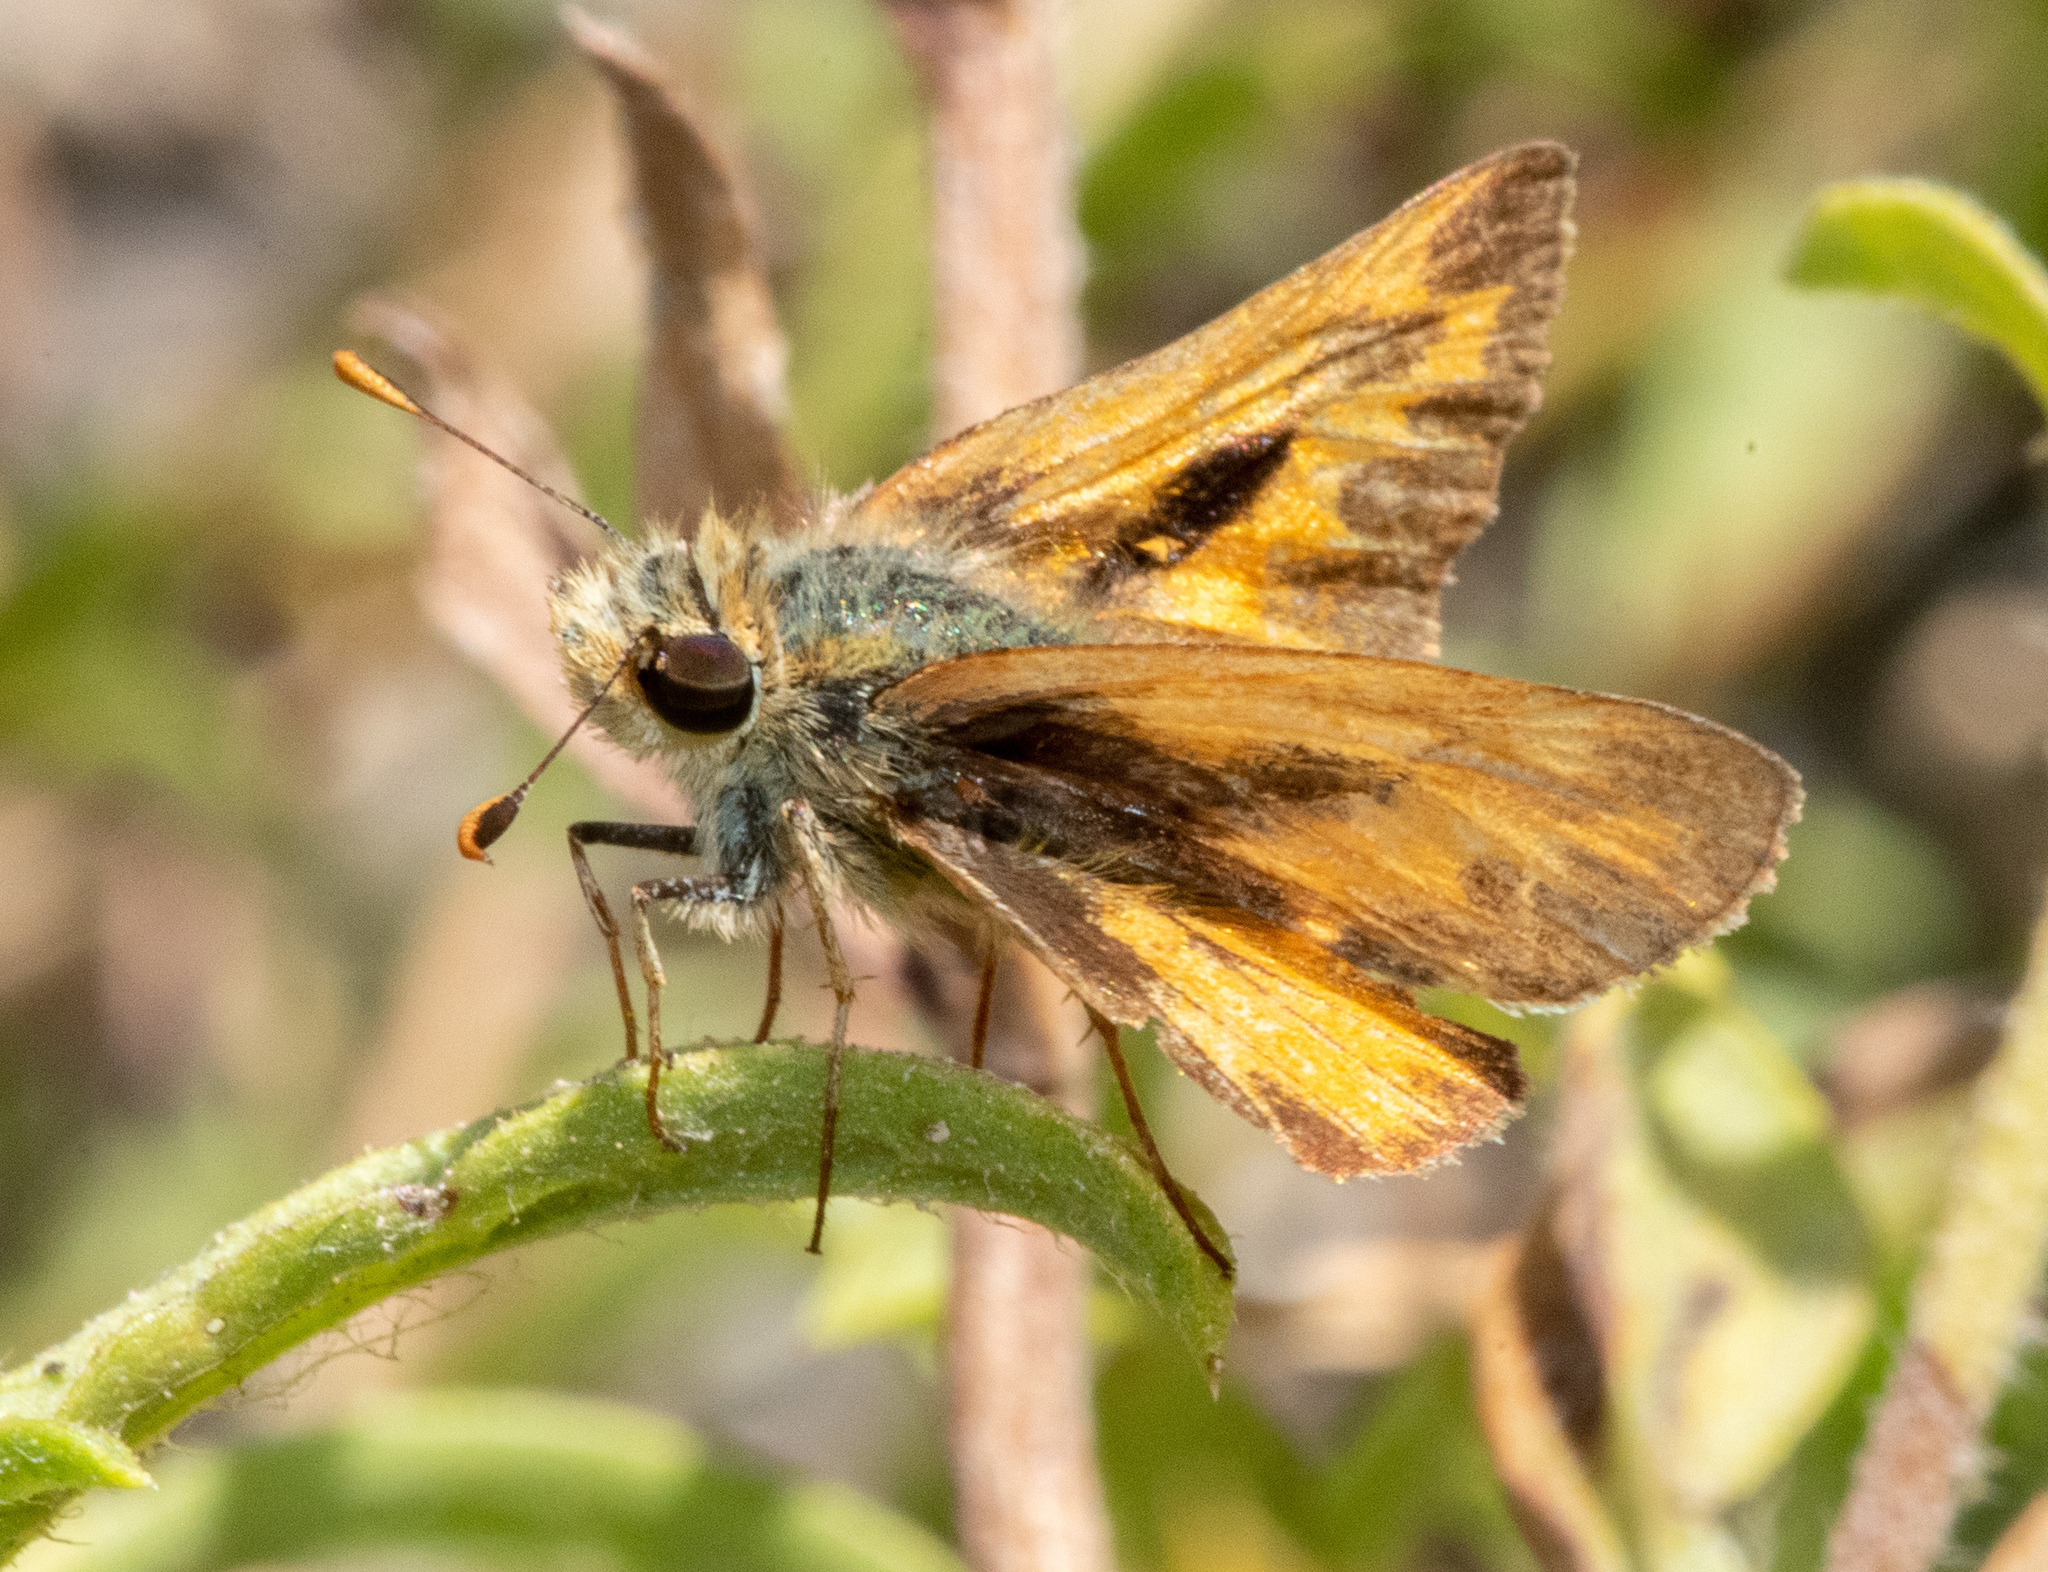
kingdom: Animalia
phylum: Arthropoda
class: Insecta
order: Lepidoptera
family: Hesperiidae
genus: Hylephila
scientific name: Hylephila phyleus
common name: Fiery skipper
